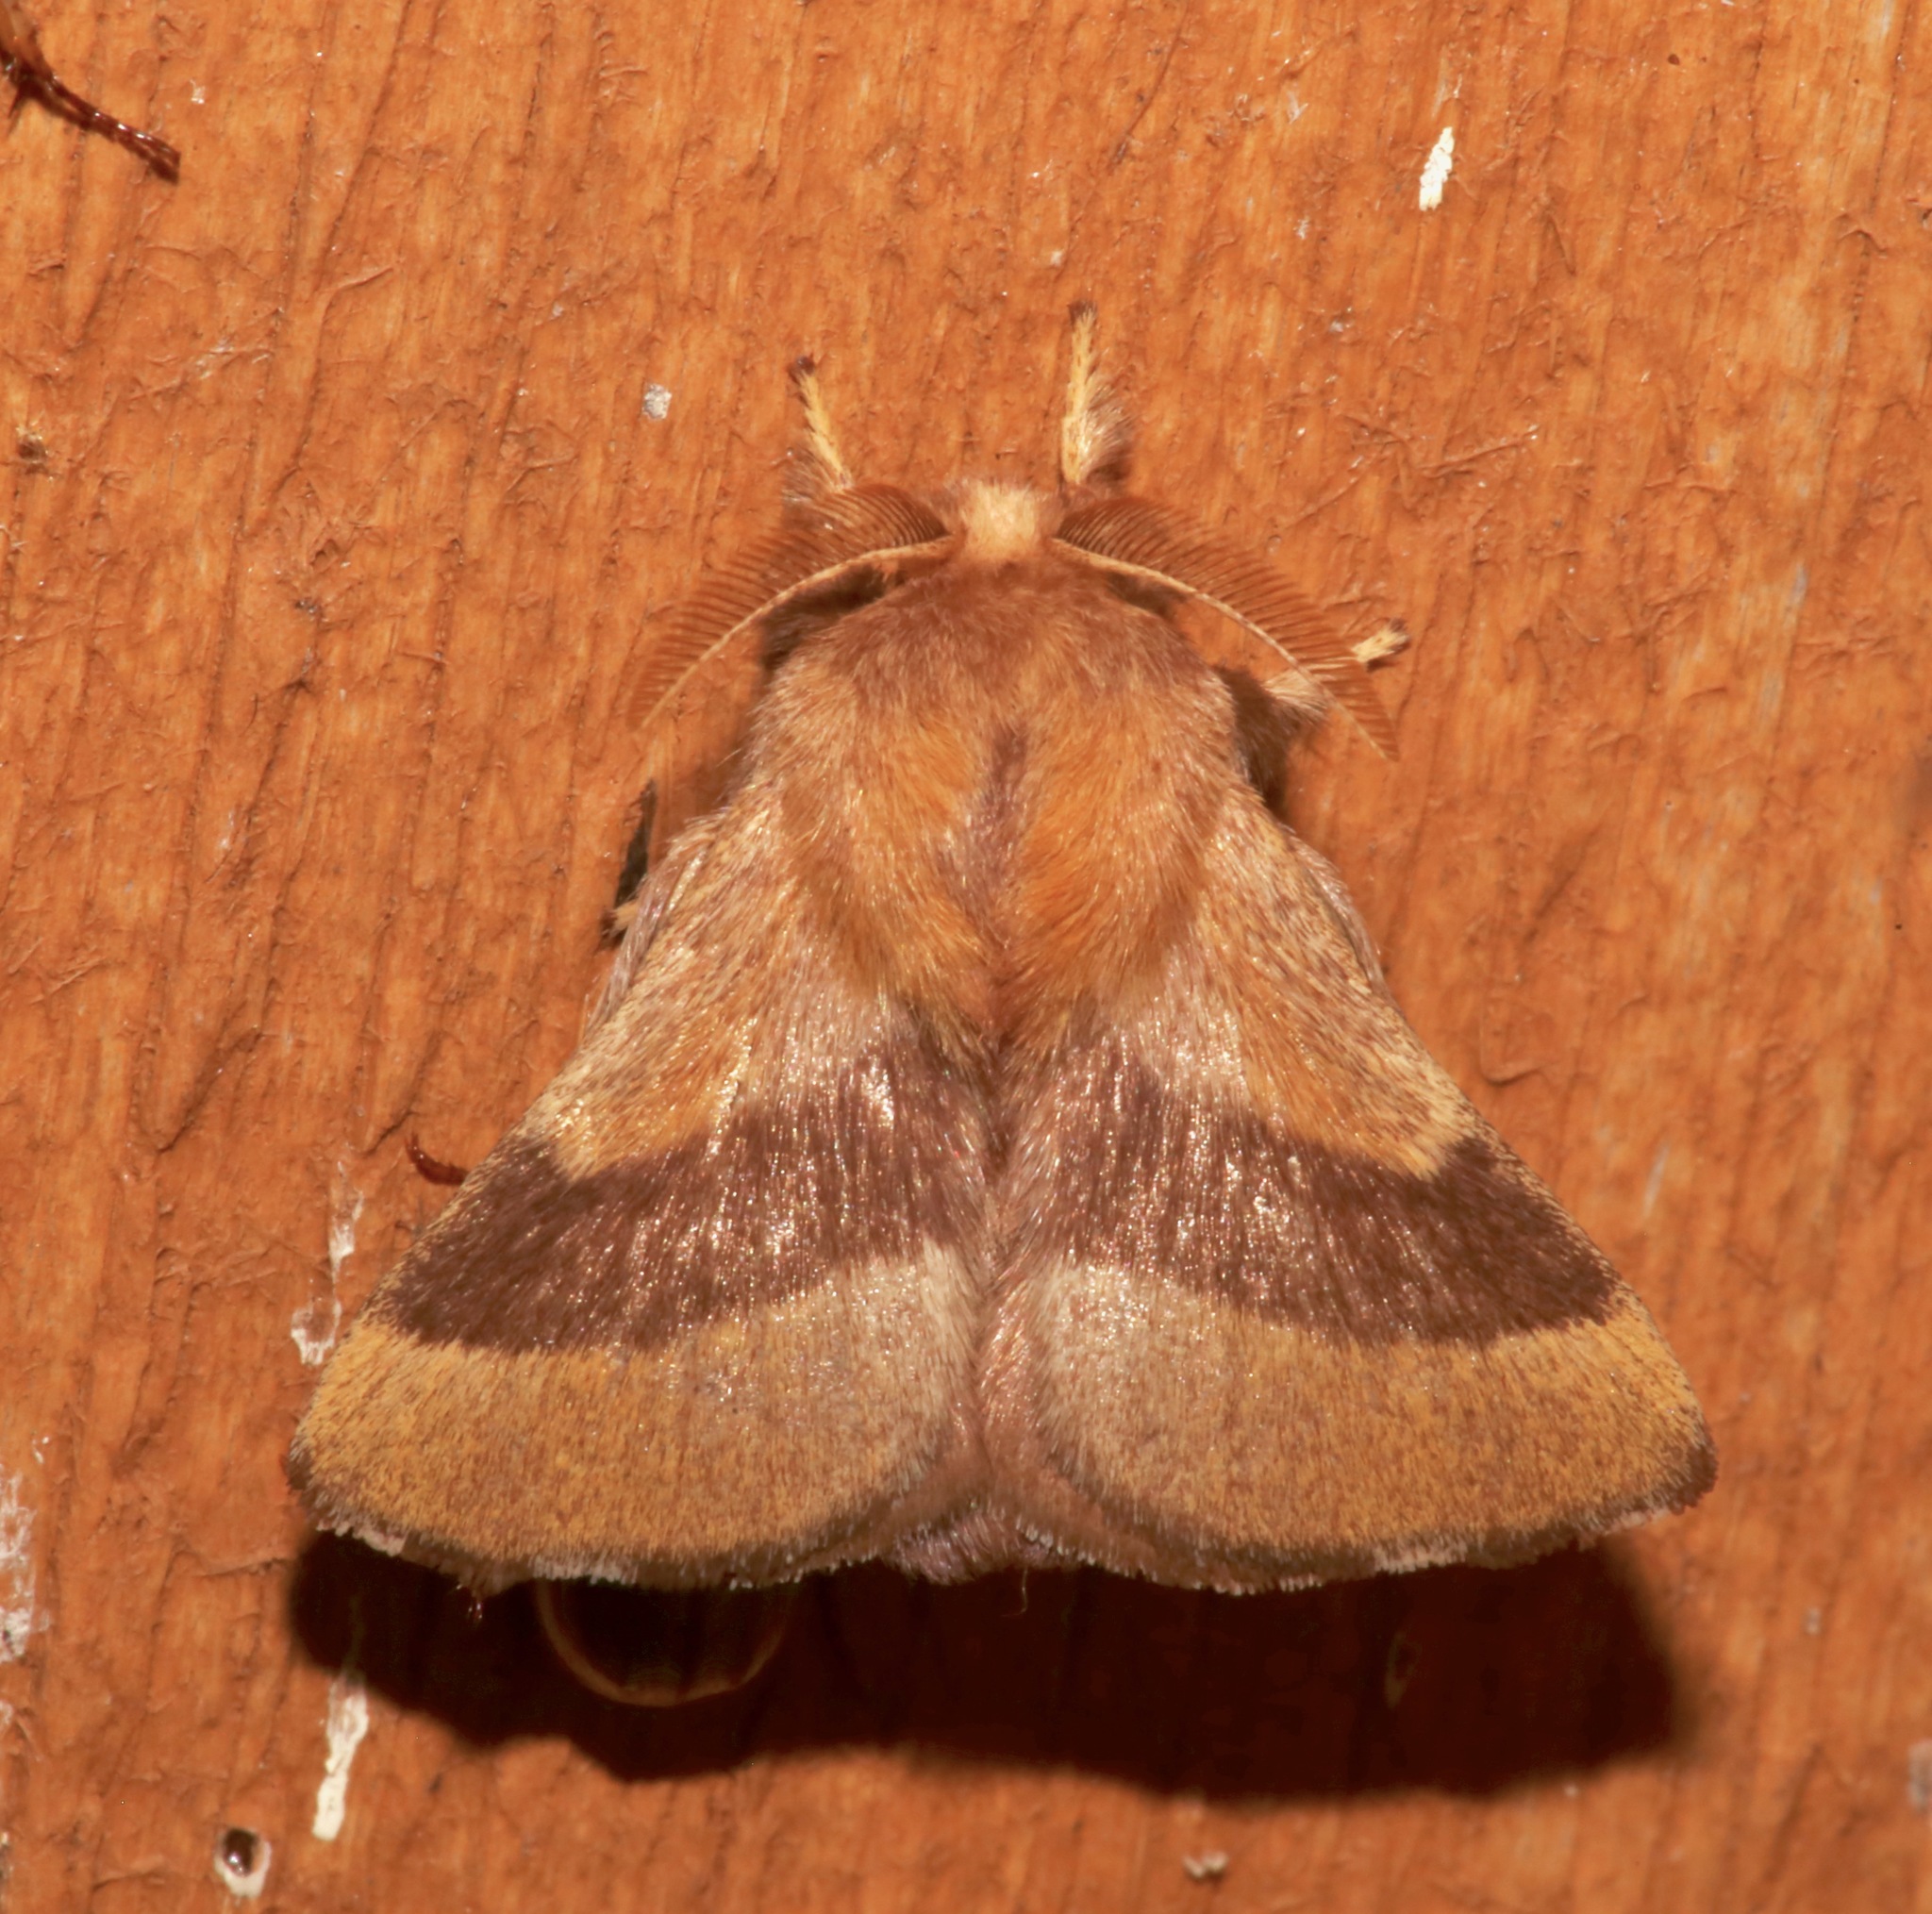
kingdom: Animalia
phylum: Arthropoda
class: Insecta
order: Lepidoptera
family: Lasiocampidae
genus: Malacosoma
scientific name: Malacosoma disstria
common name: Forest tent caterpillar
